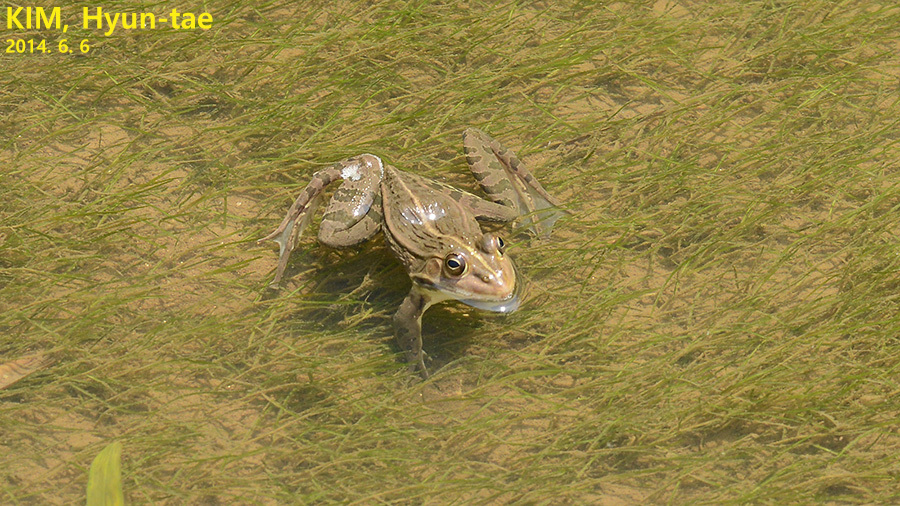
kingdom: Animalia
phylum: Chordata
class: Amphibia
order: Anura
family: Ranidae
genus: Pelophylax
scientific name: Pelophylax nigromaculatus
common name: Black-spotted pond frog
